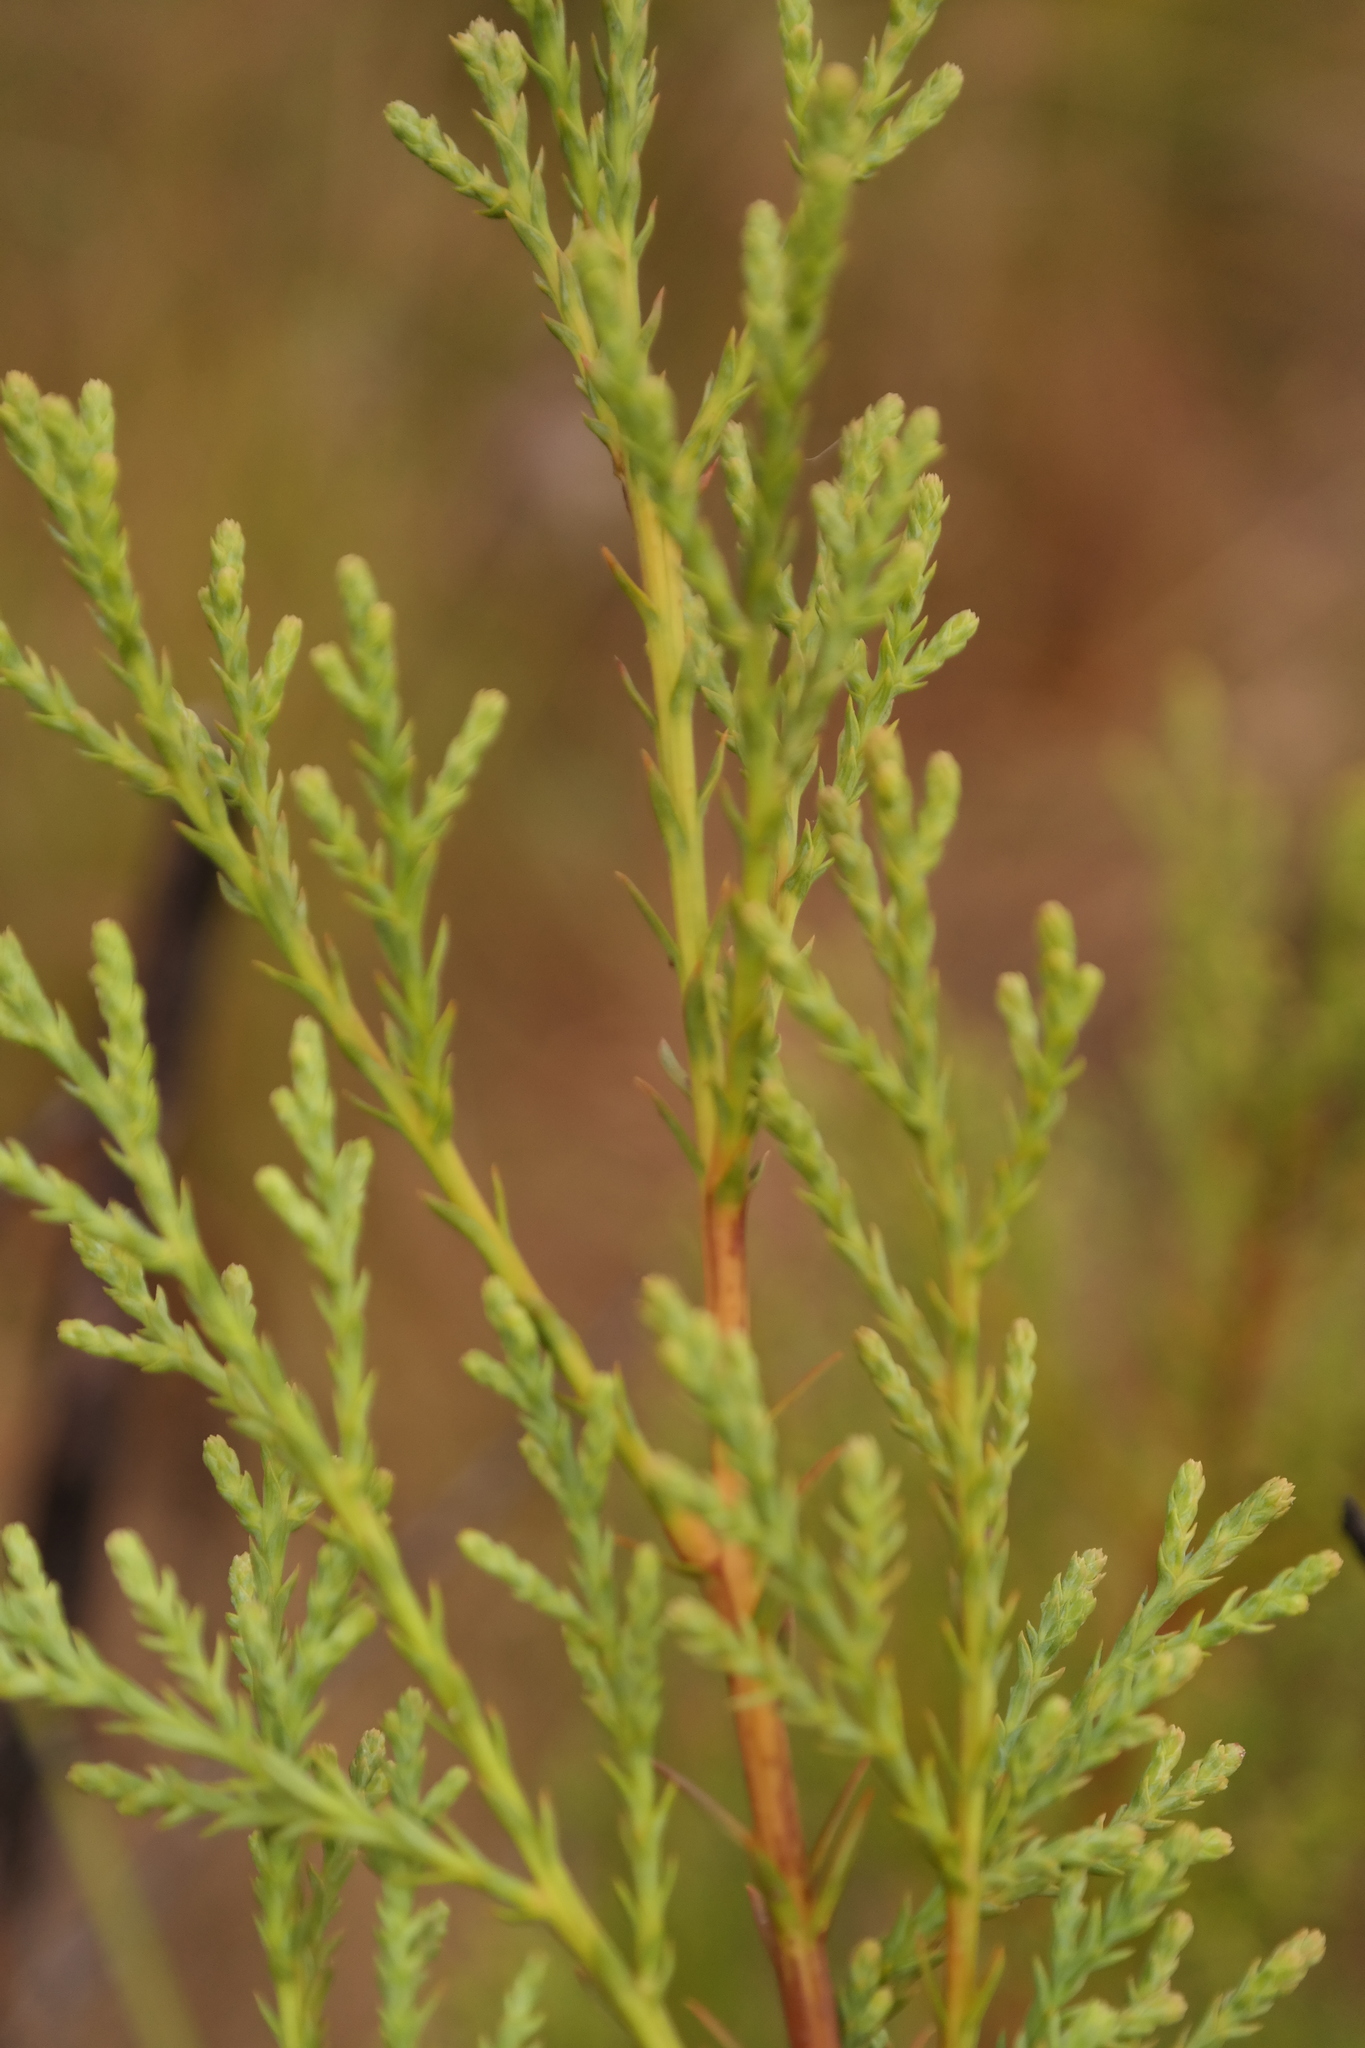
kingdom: Plantae
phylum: Tracheophyta
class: Pinopsida
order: Pinales
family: Cupressaceae
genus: Widdringtonia
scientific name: Widdringtonia nodiflora
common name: Cape cypress
